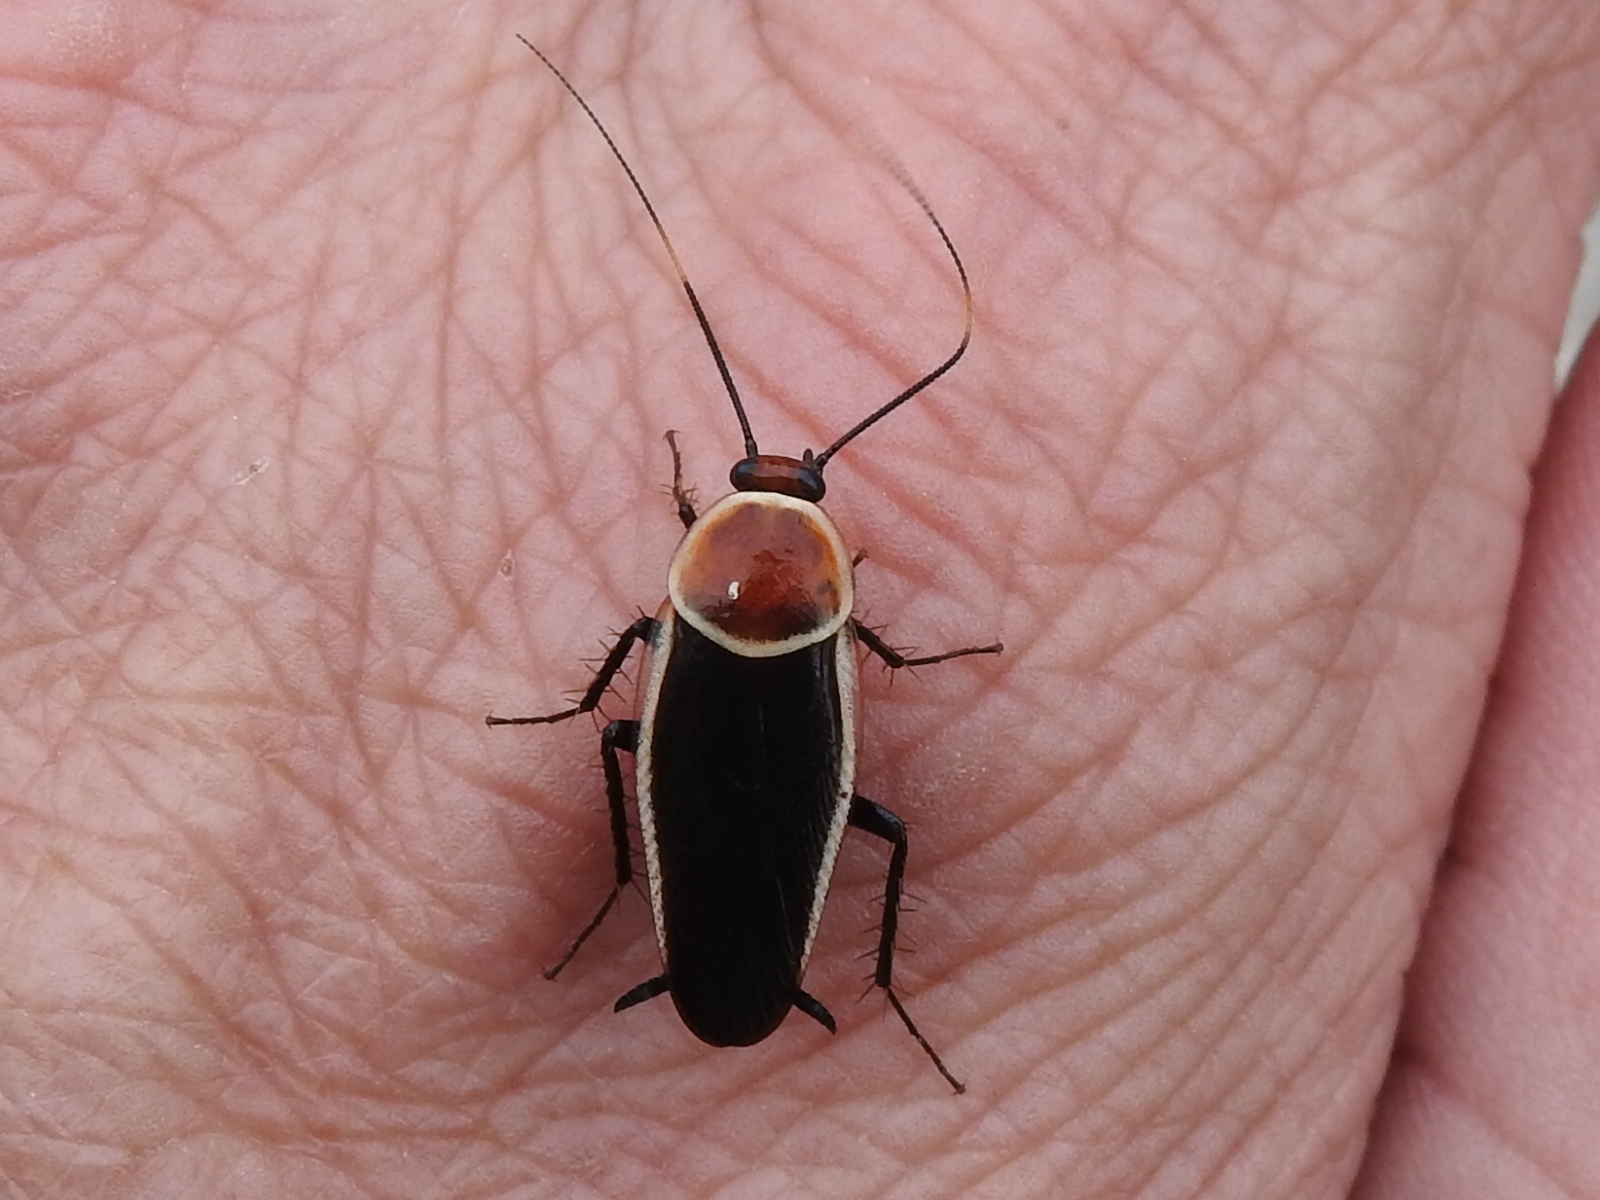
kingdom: Animalia
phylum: Arthropoda
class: Insecta
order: Blattodea
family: Ectobiidae
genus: Pseudomops
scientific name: Pseudomops septentrionalis
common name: Pale-bordered field cockroach
